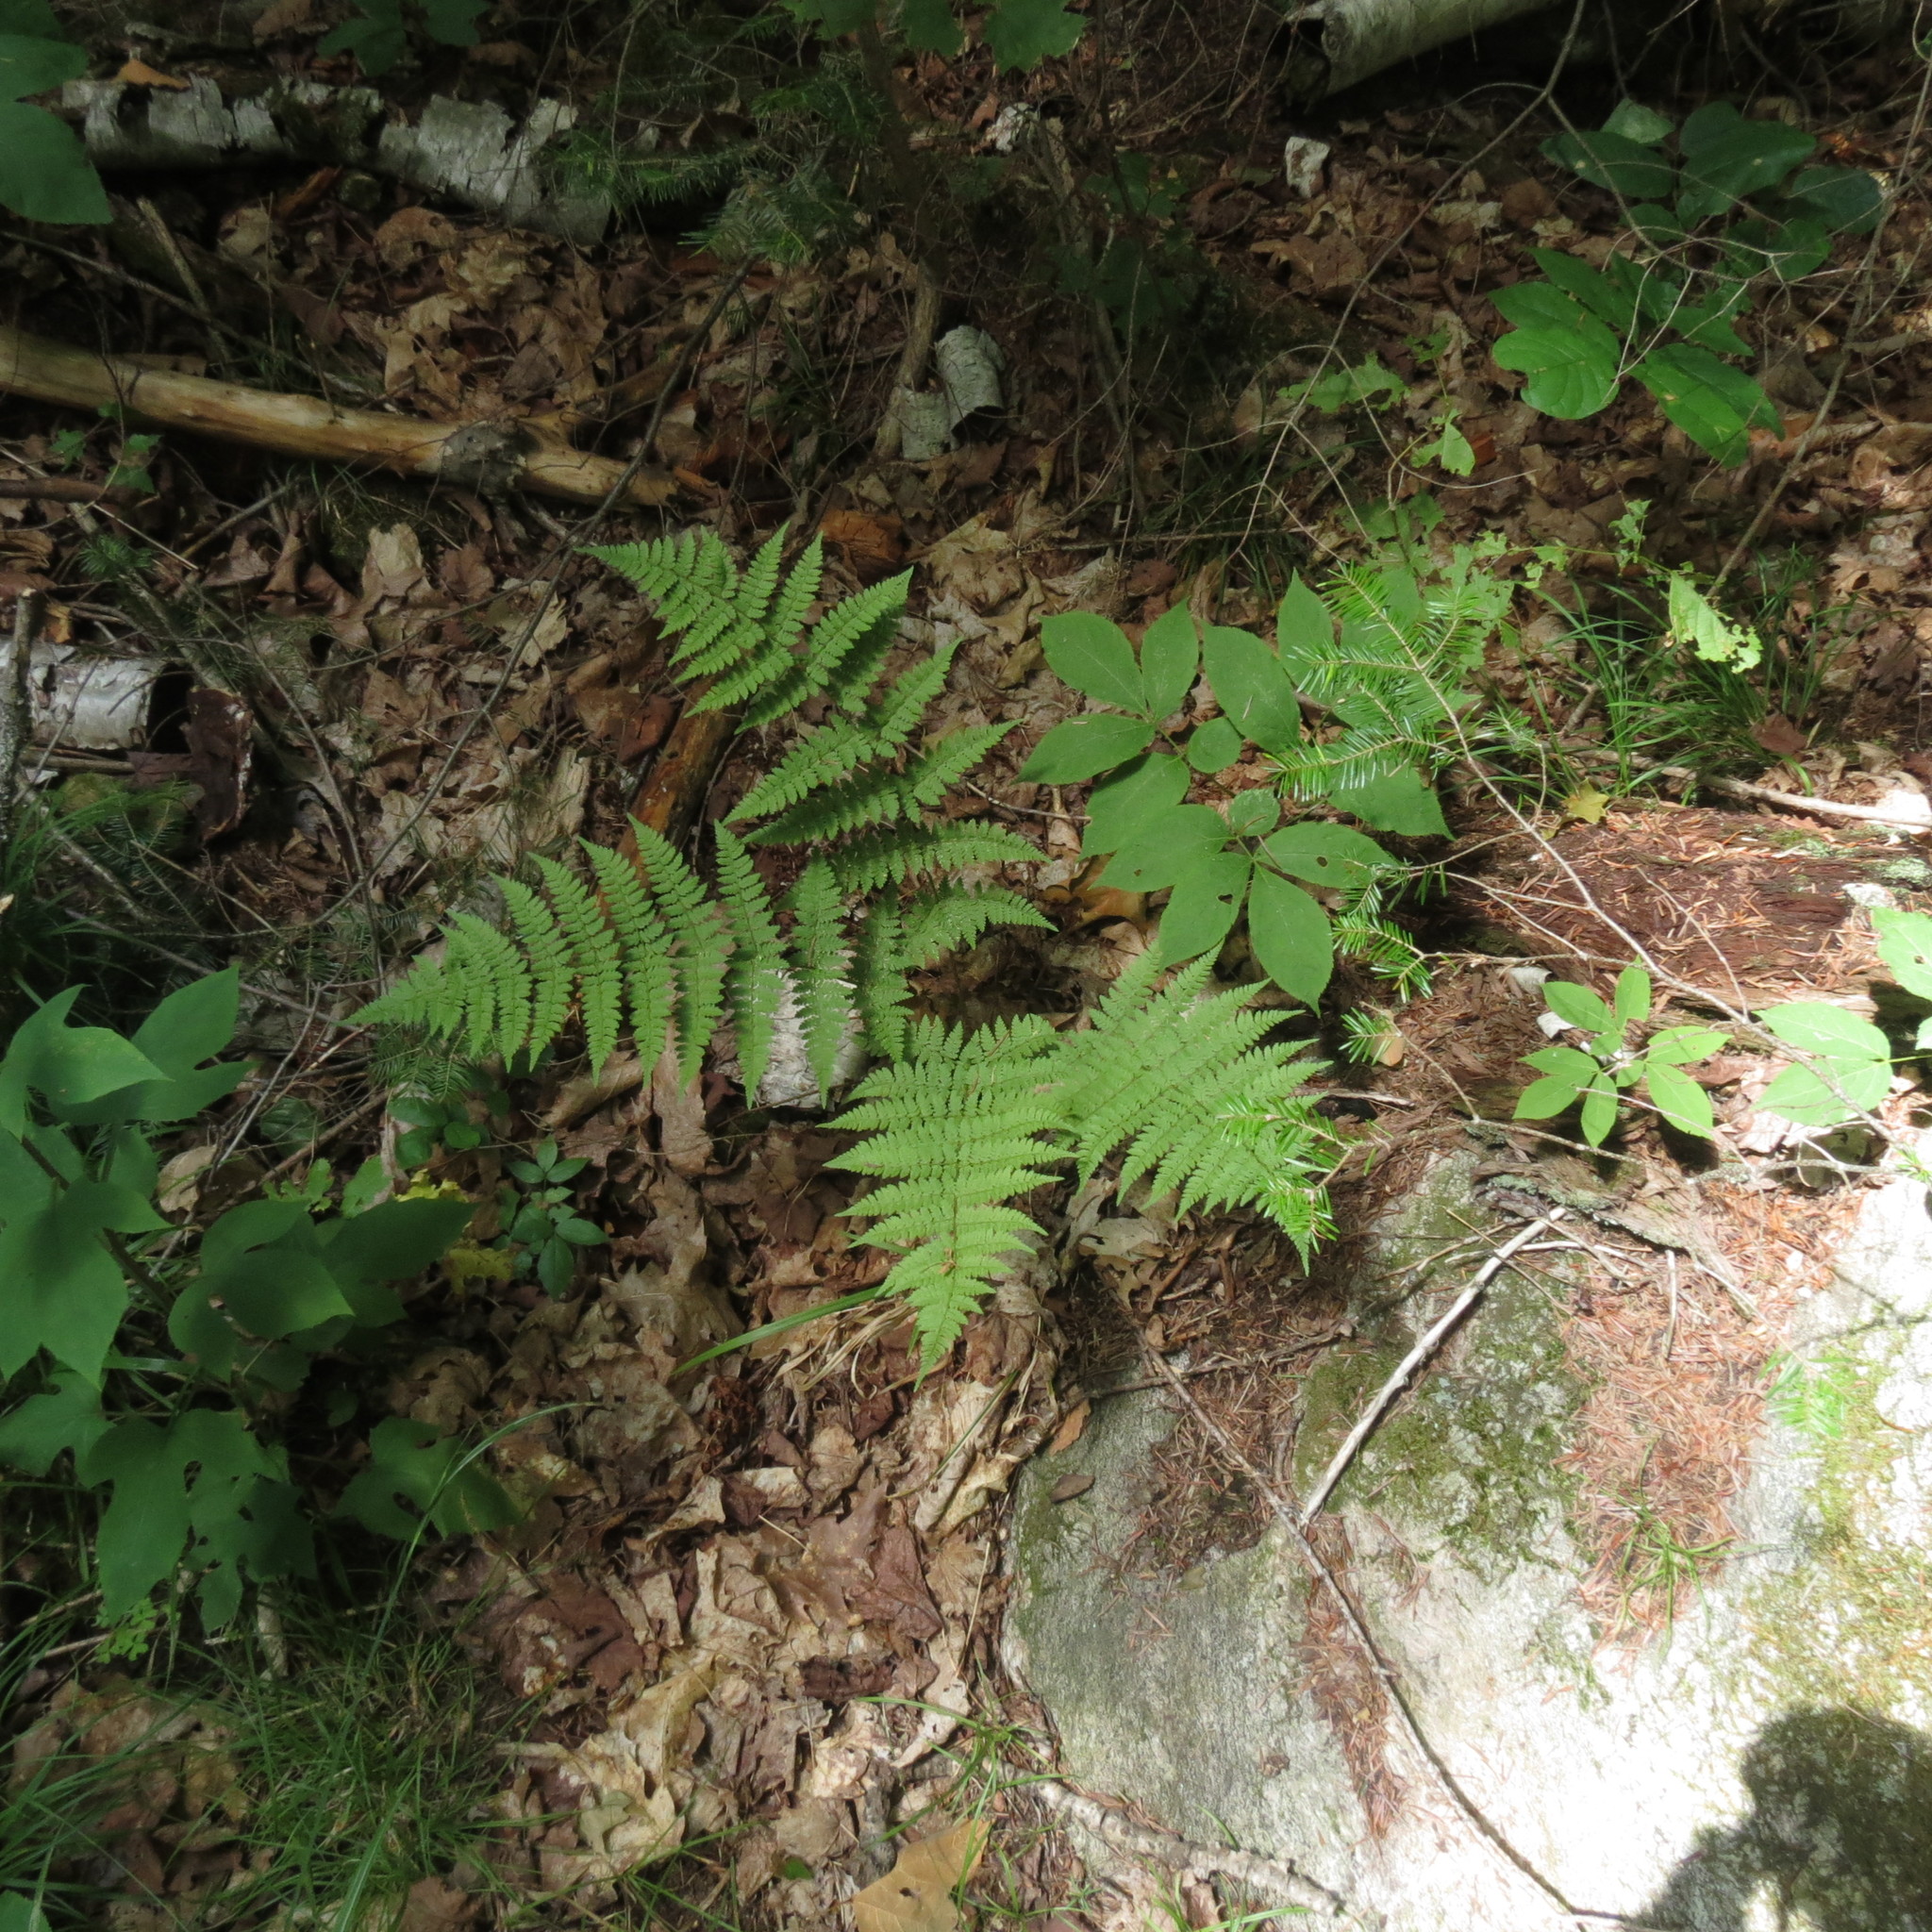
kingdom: Plantae
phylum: Tracheophyta
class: Polypodiopsida
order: Polypodiales
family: Dryopteridaceae
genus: Dryopteris
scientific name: Dryopteris carthusiana
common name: Narrow buckler-fern
